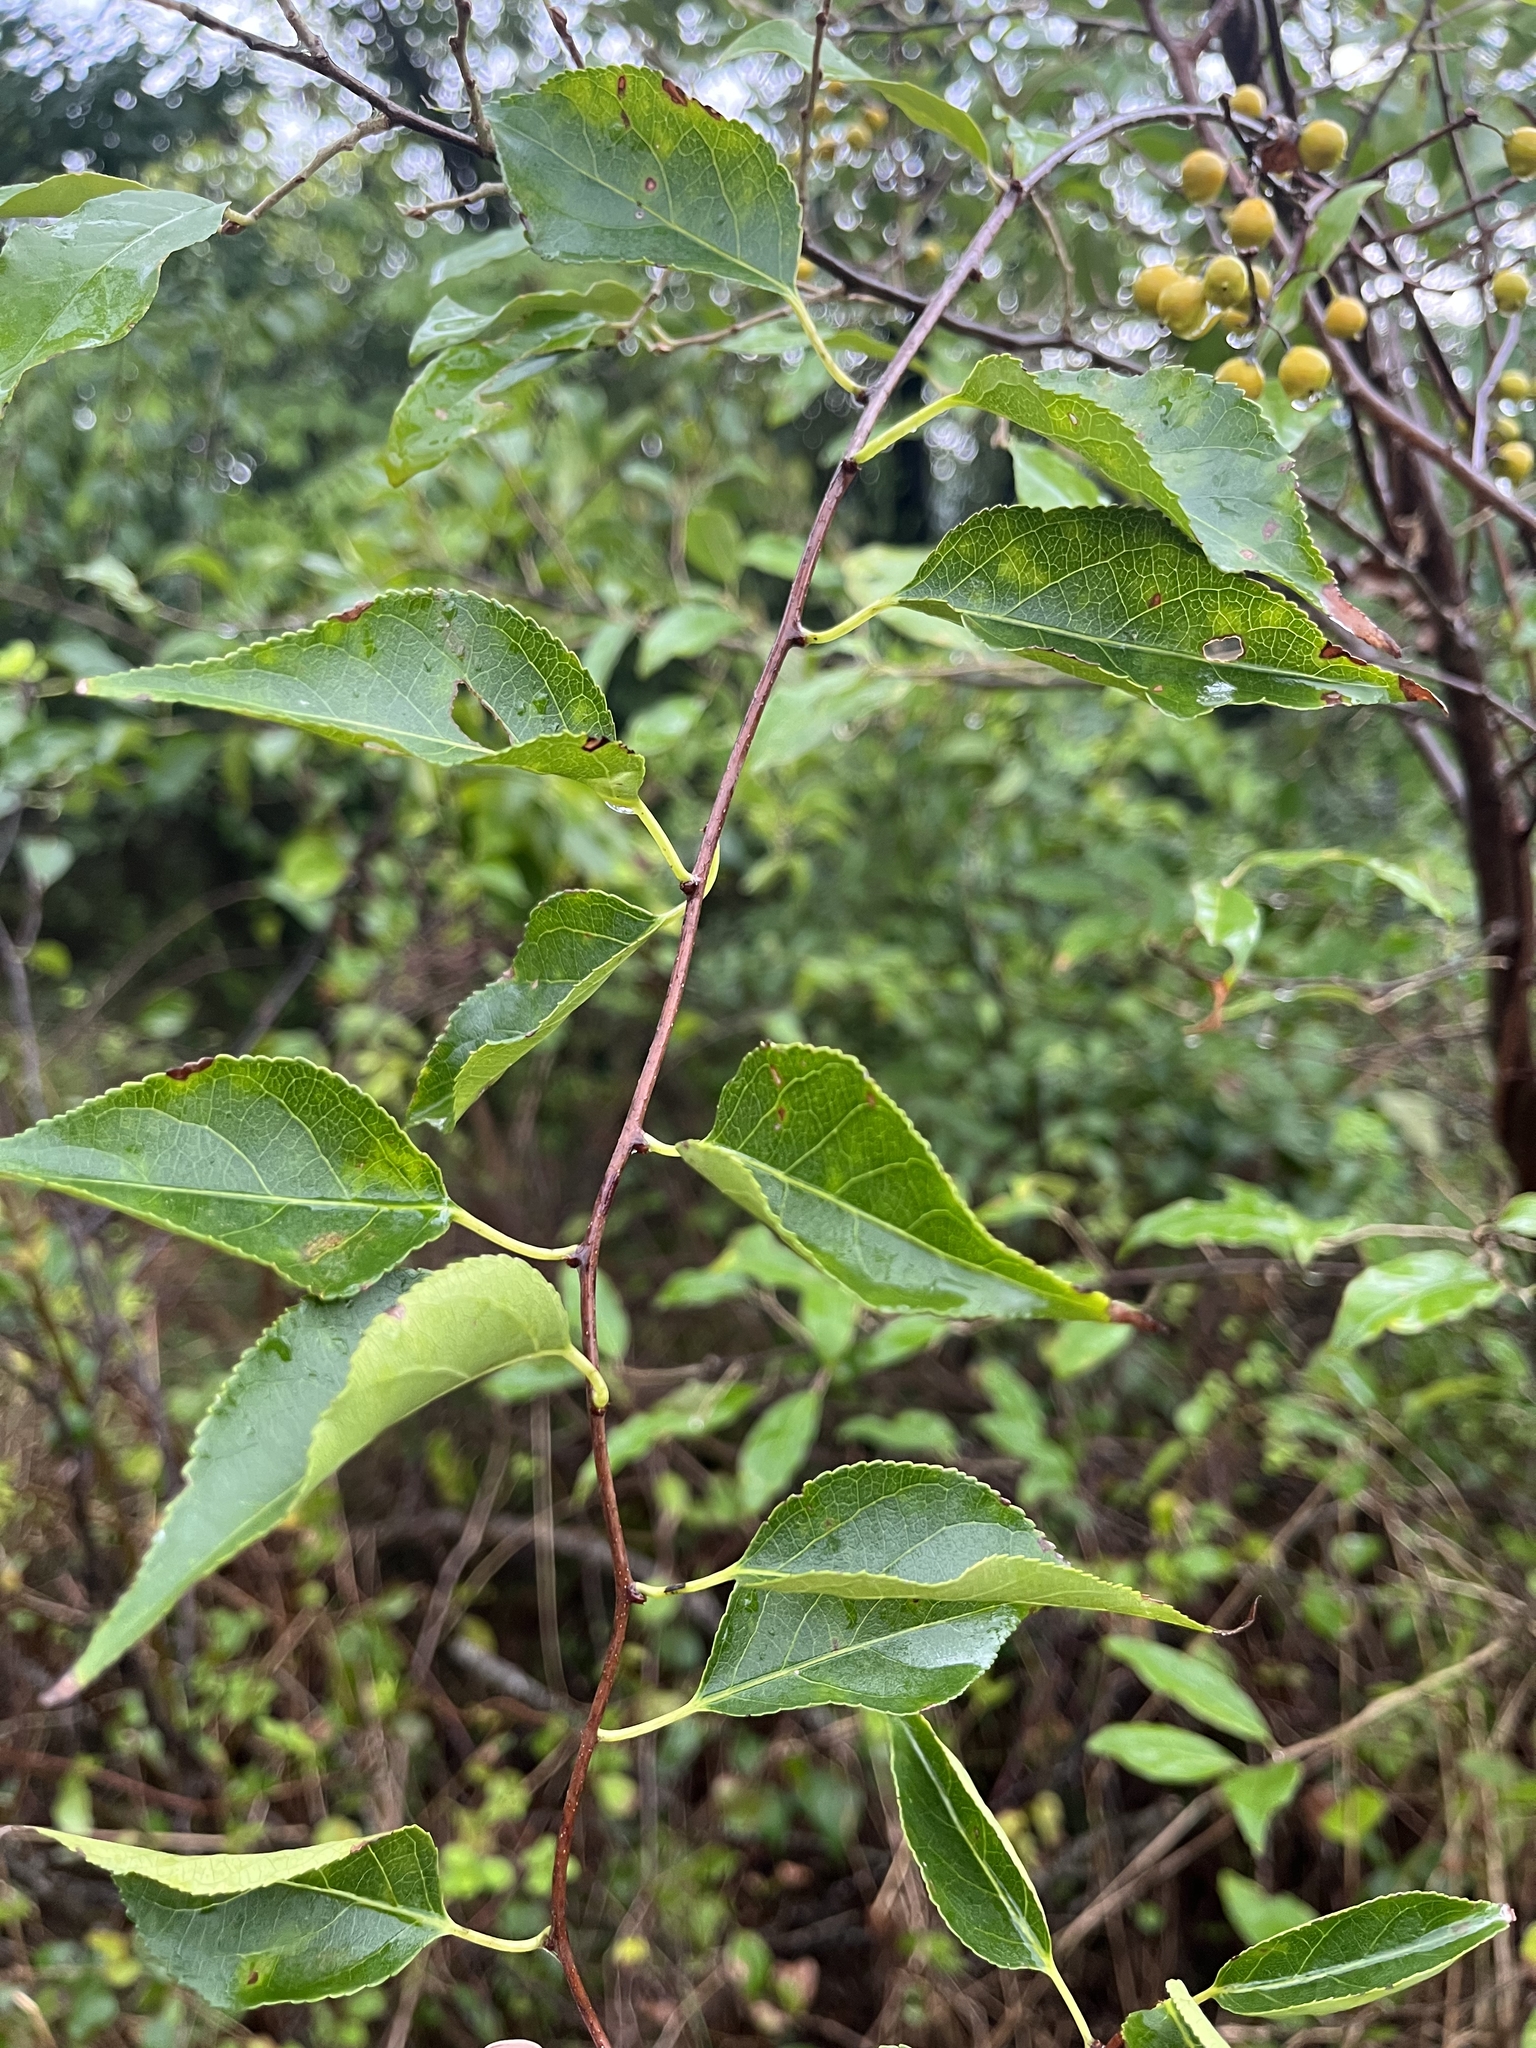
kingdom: Plantae
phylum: Tracheophyta
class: Magnoliopsida
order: Celastrales
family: Celastraceae
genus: Celastrus
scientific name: Celastrus orbiculatus
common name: Oriental bittersweet
